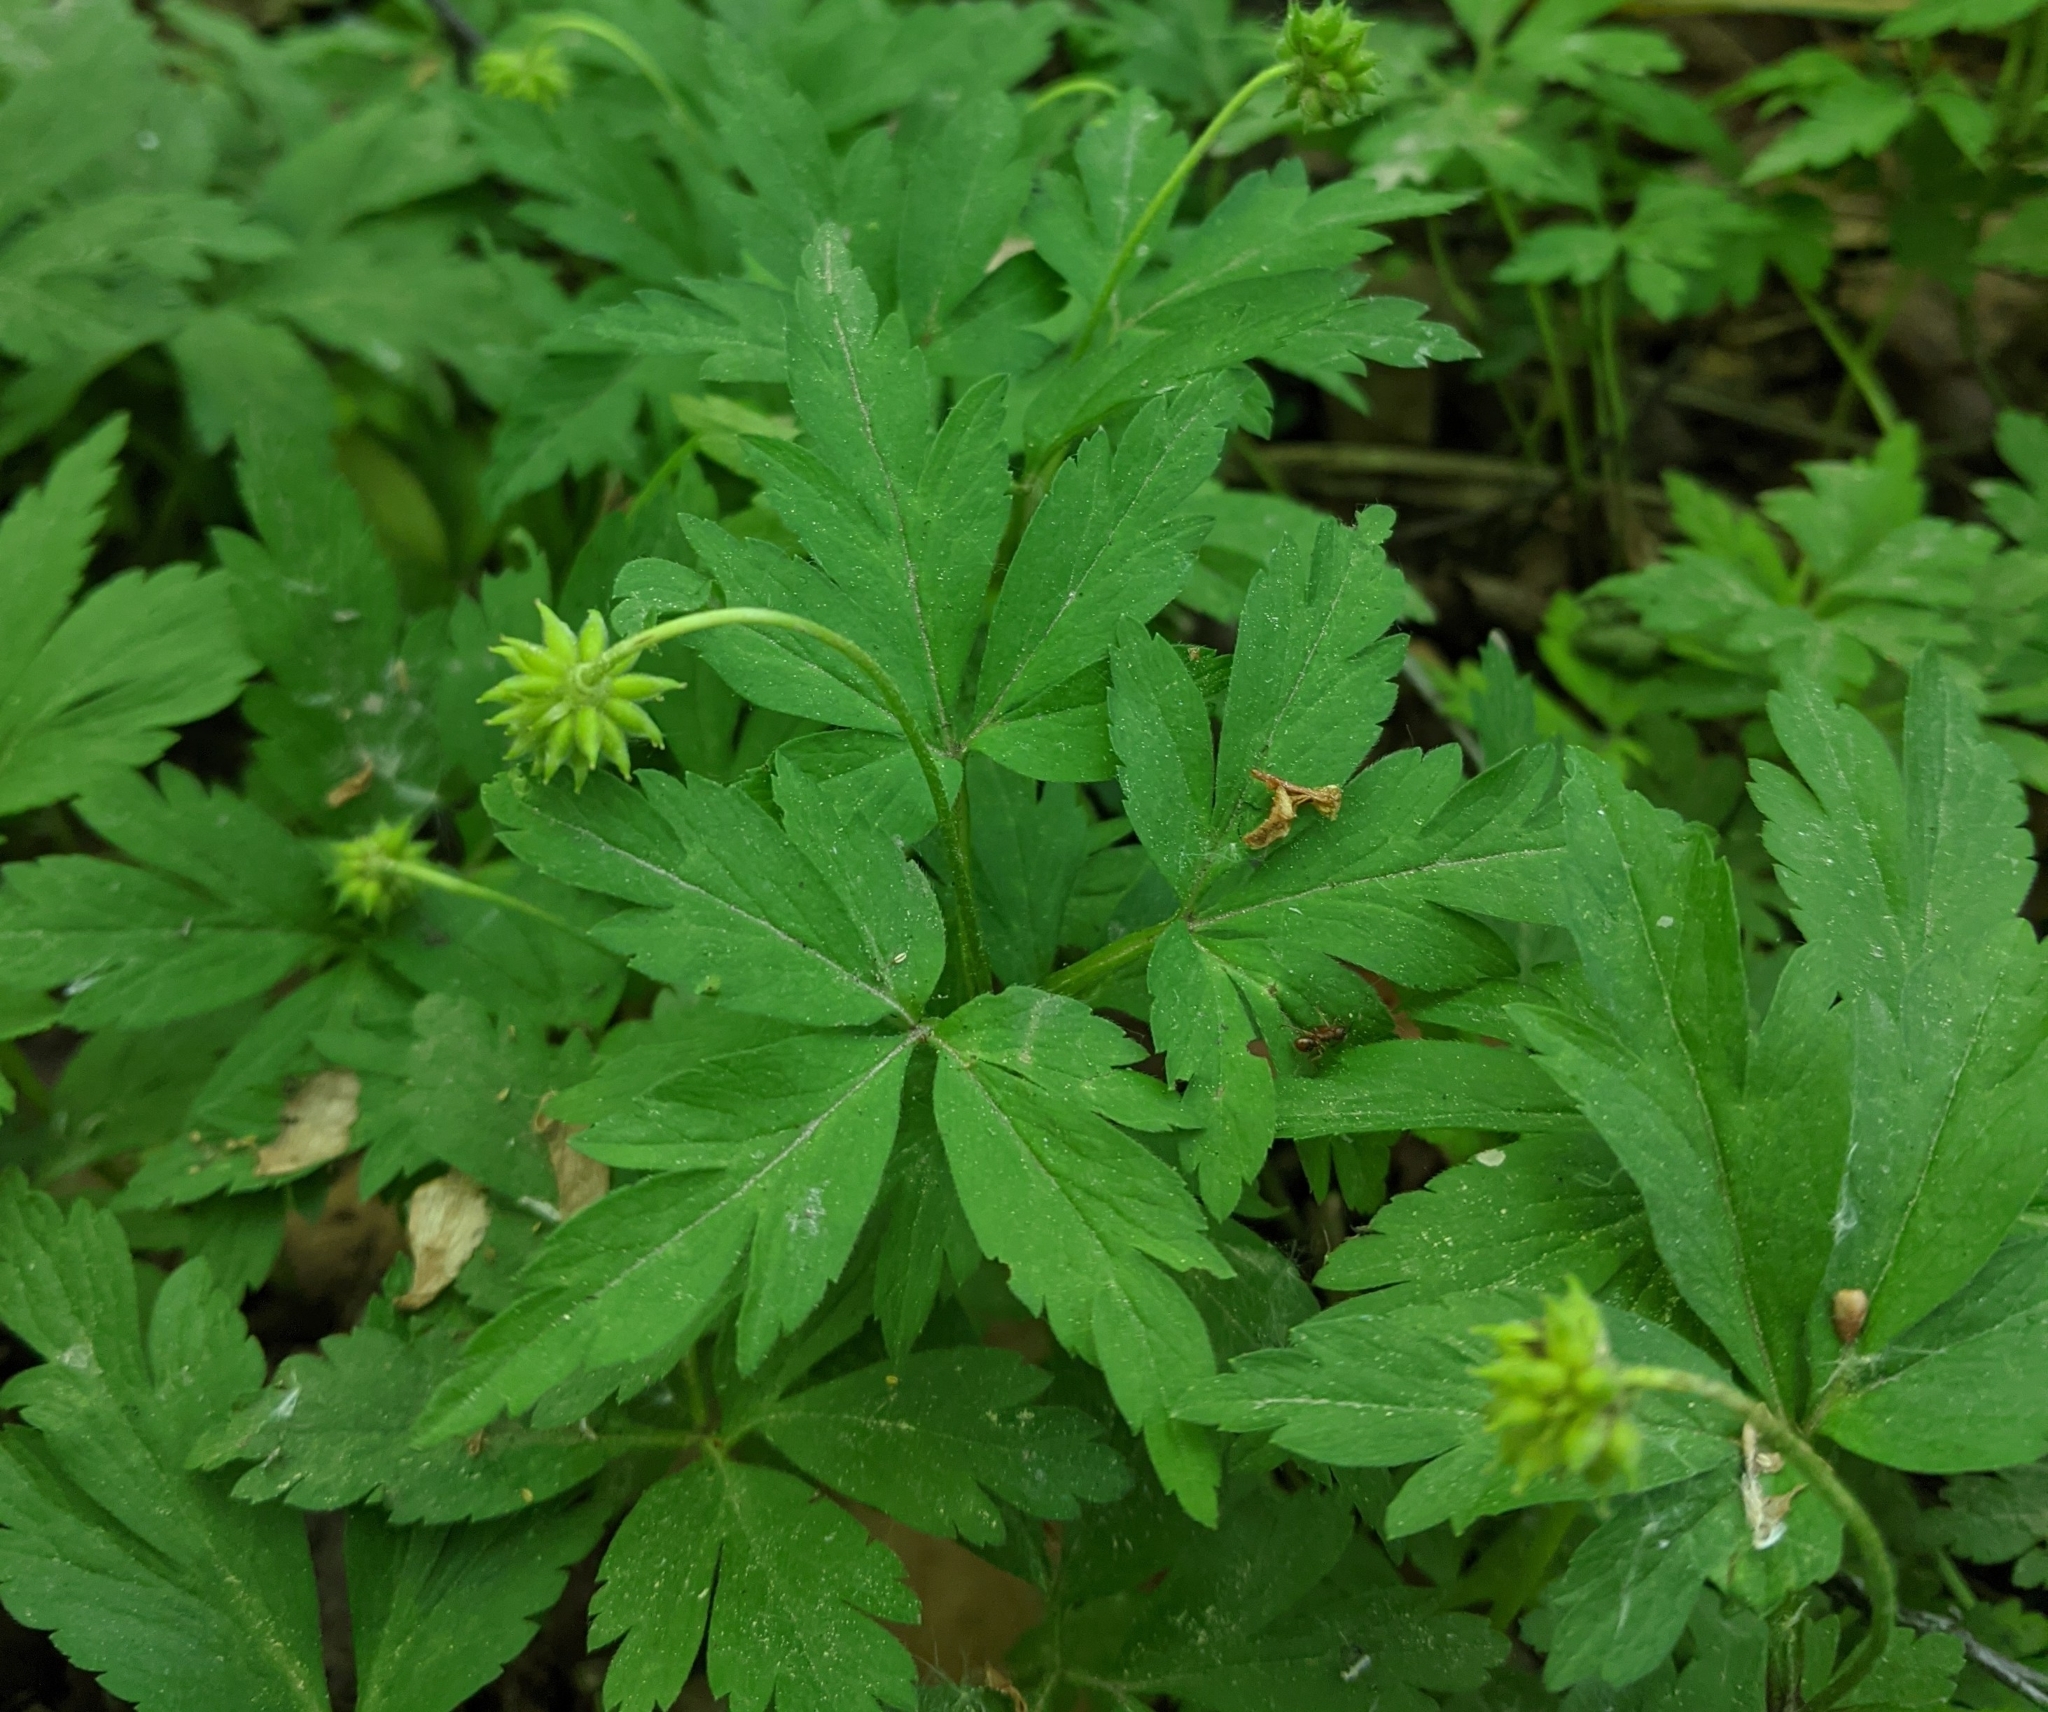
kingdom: Plantae
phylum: Tracheophyta
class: Magnoliopsida
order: Ranunculales
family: Ranunculaceae
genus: Anemone
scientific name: Anemone nemorosa
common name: Wood anemone
